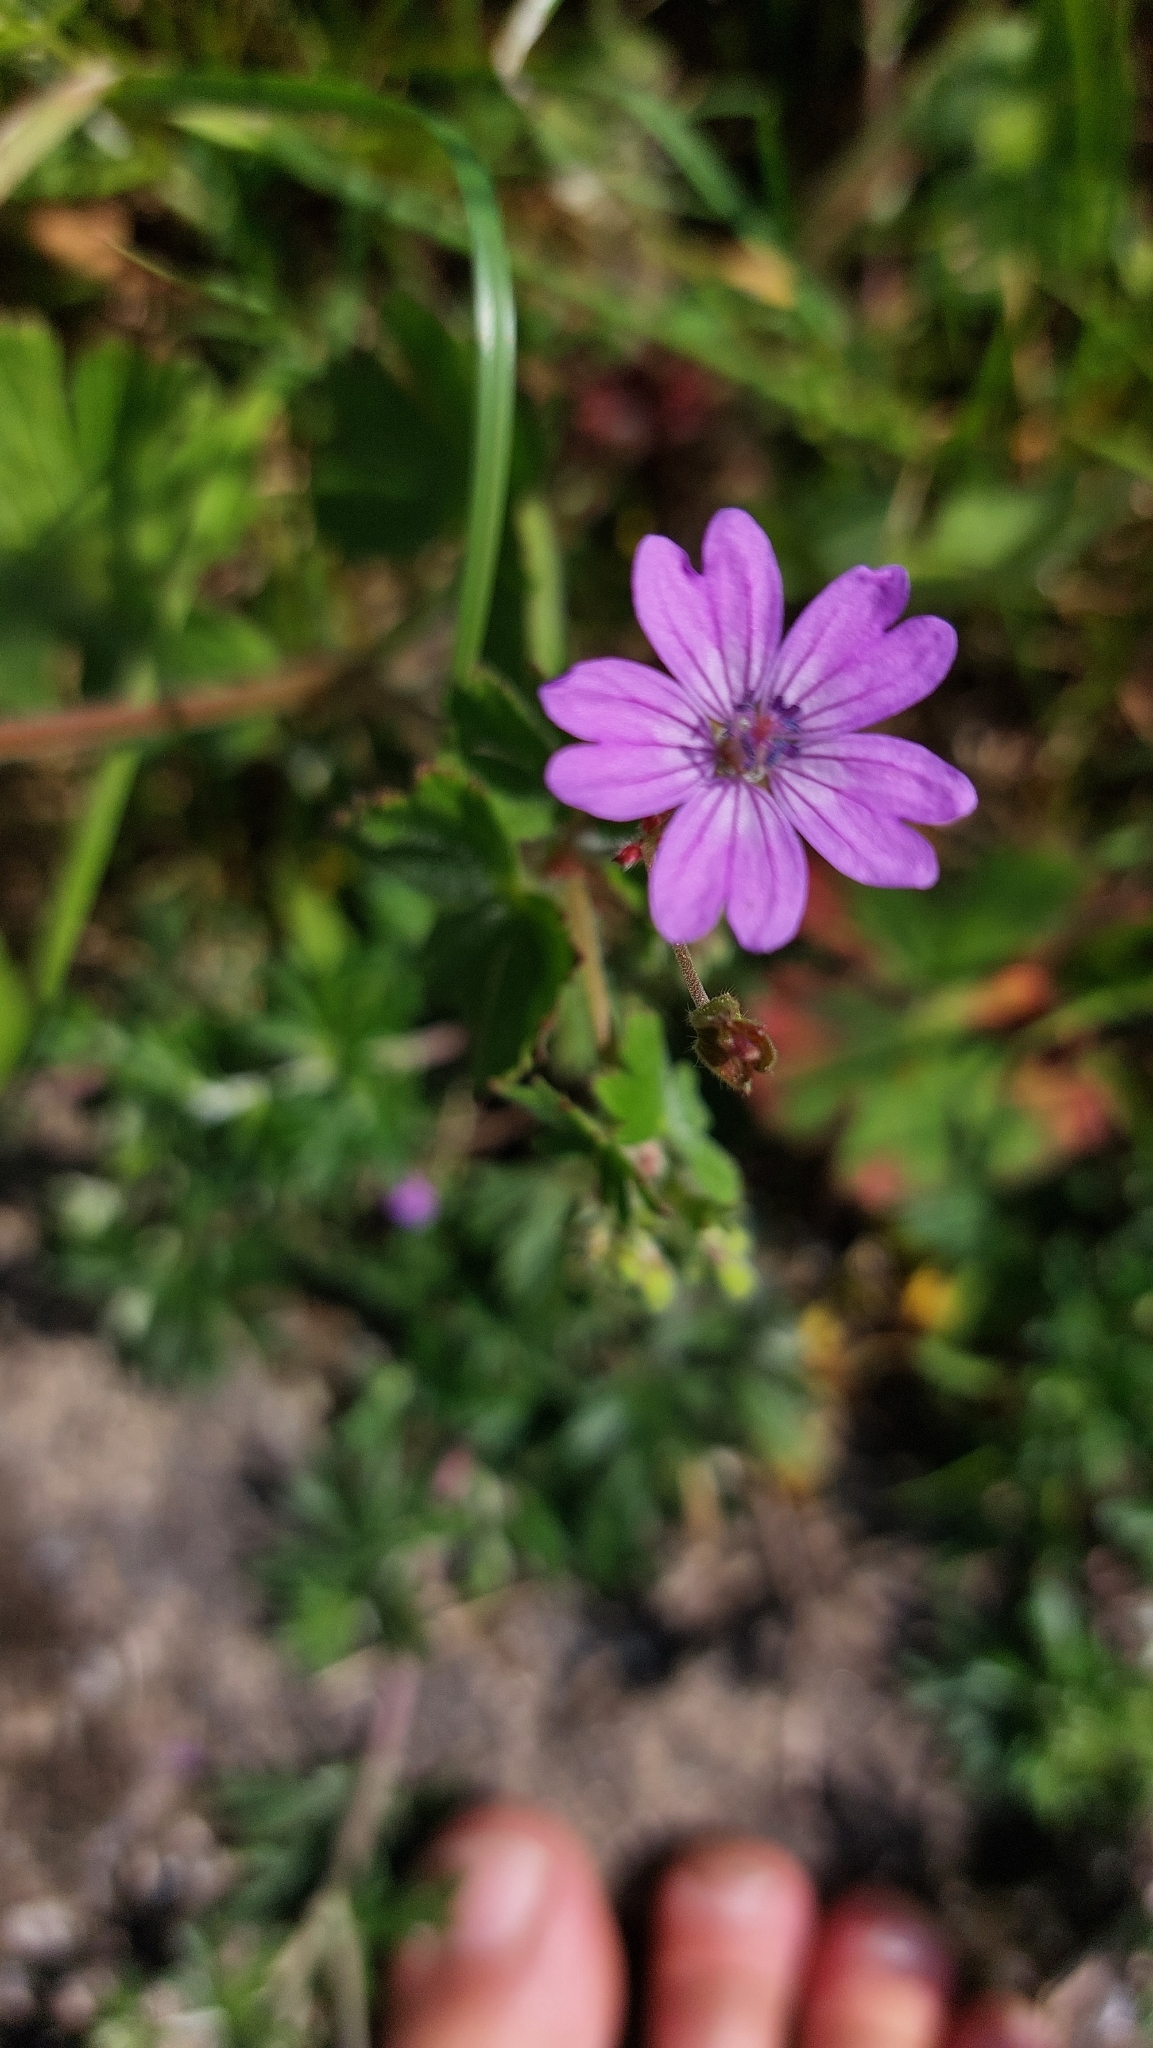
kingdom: Plantae
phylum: Tracheophyta
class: Magnoliopsida
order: Geraniales
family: Geraniaceae
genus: Geranium
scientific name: Geranium pyrenaicum
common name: Hedgerow crane's-bill
